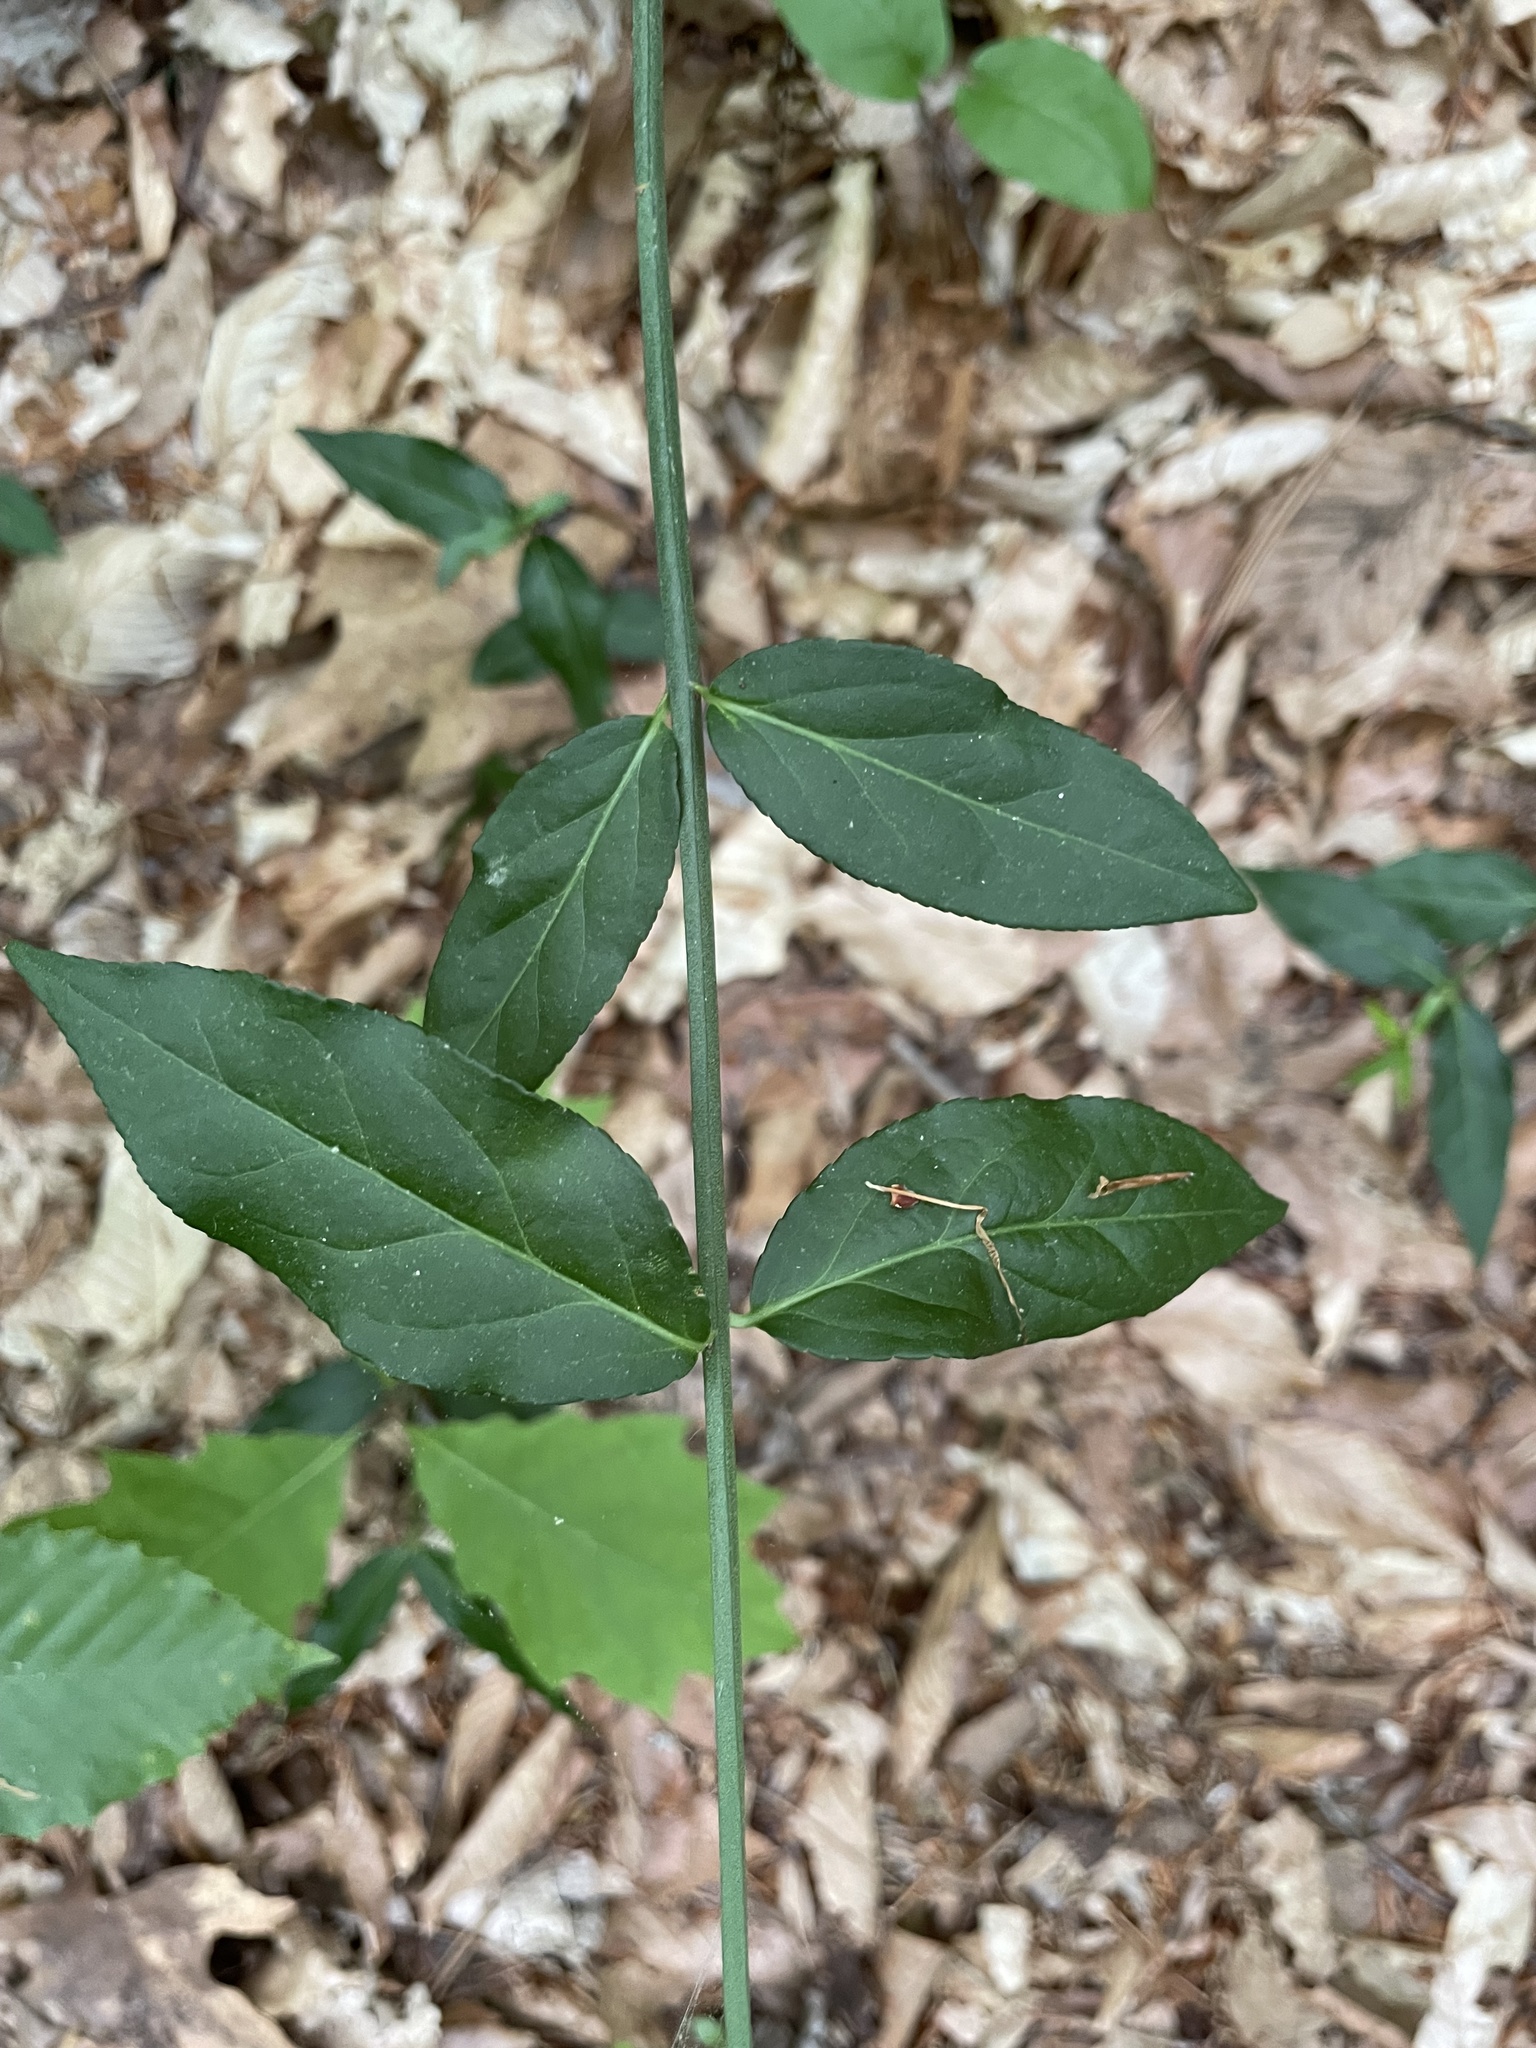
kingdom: Plantae
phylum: Tracheophyta
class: Magnoliopsida
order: Celastrales
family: Celastraceae
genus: Euonymus
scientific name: Euonymus americanus
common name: Bursting-heart
